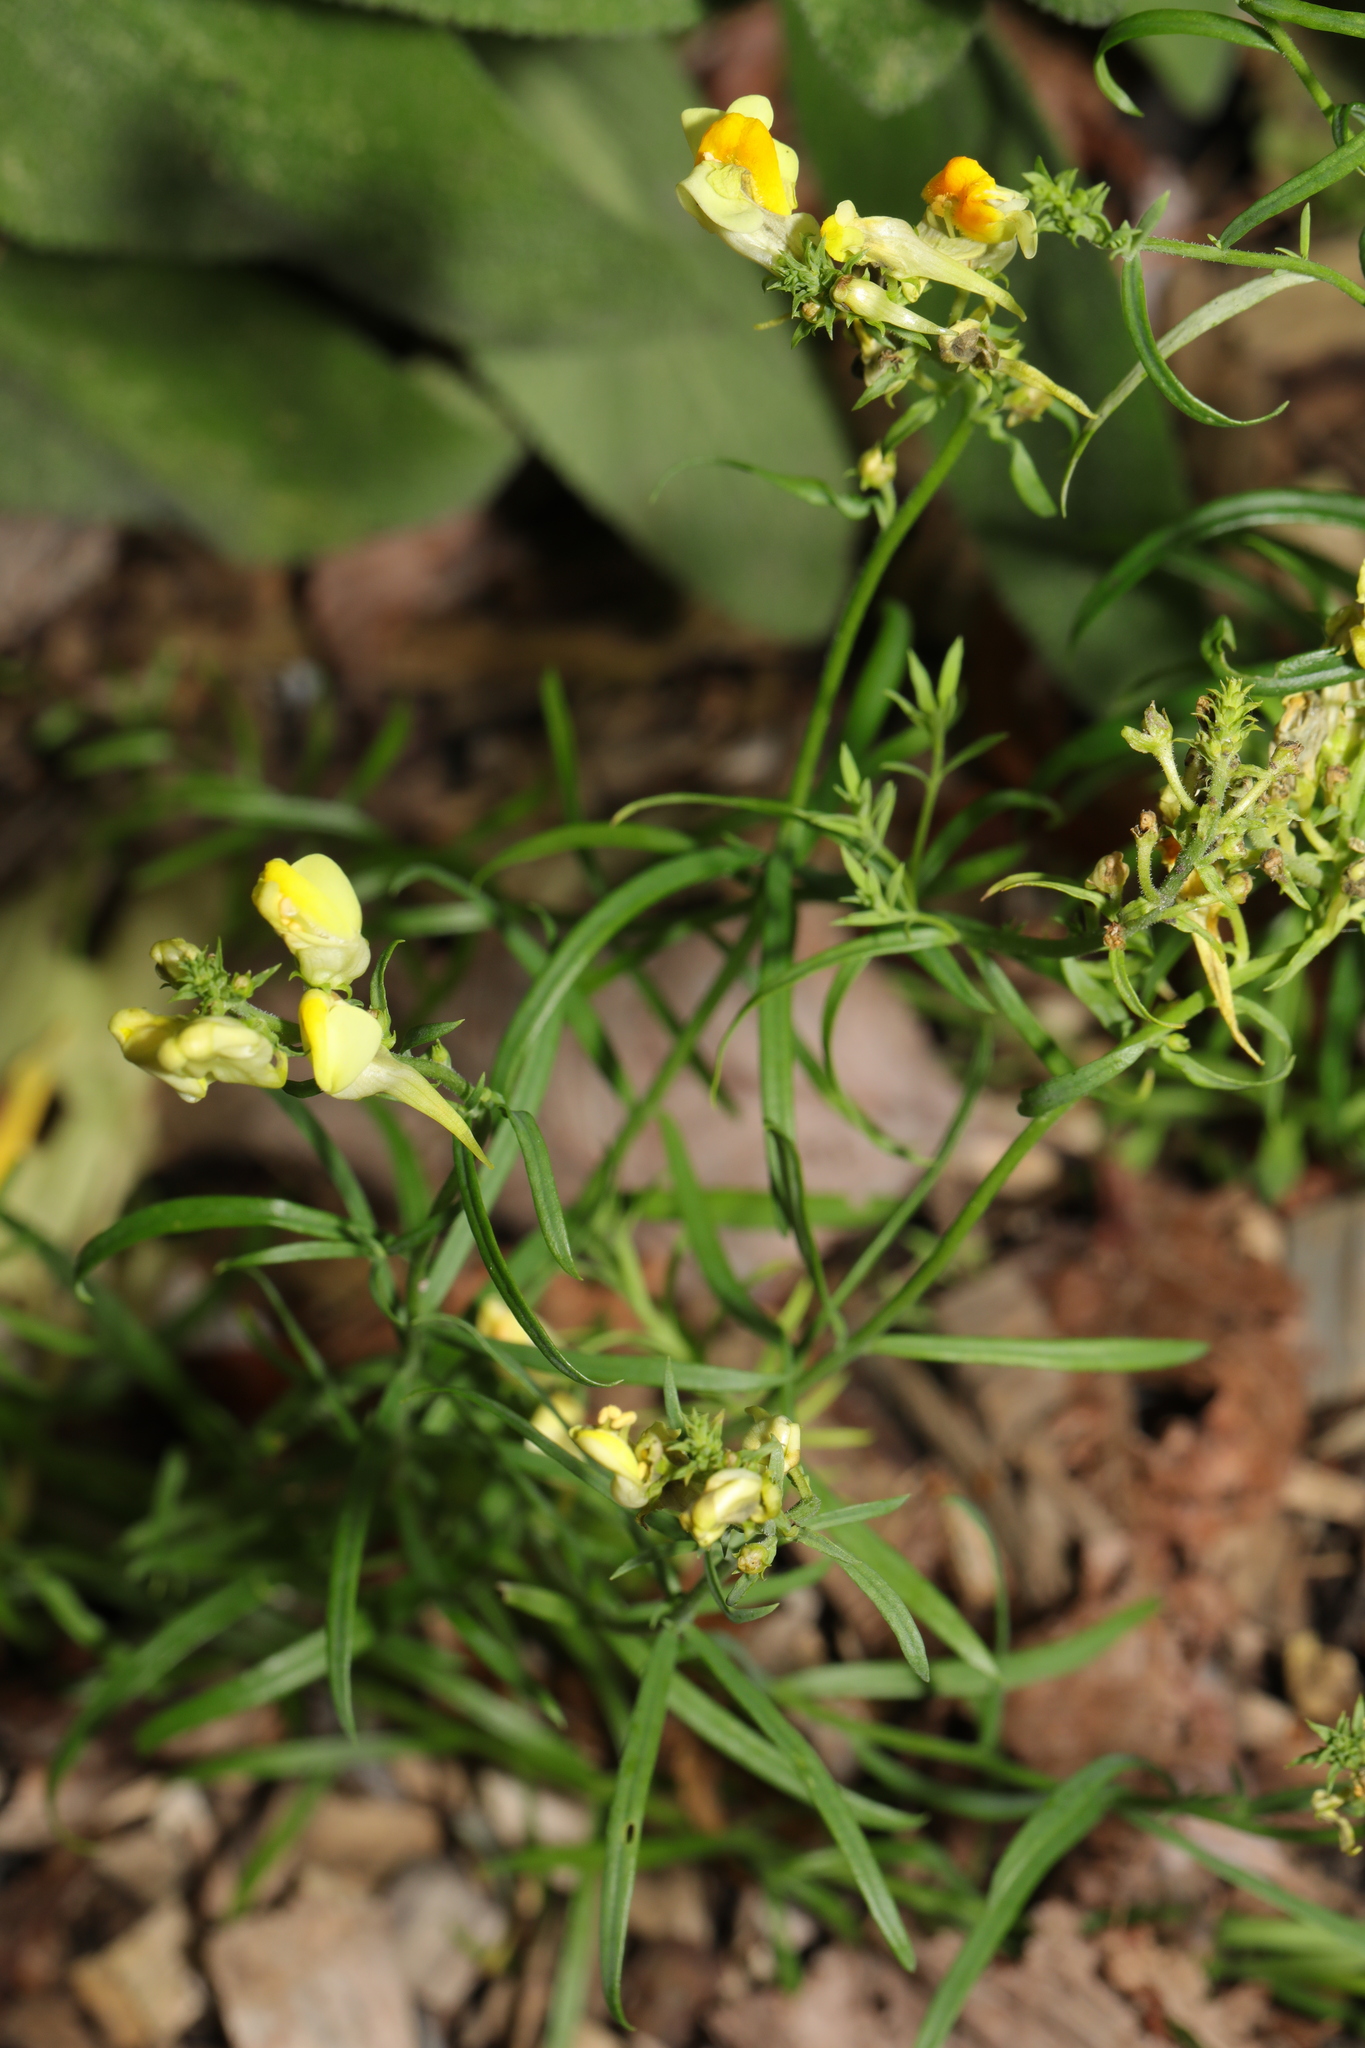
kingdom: Plantae
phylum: Tracheophyta
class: Magnoliopsida
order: Lamiales
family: Plantaginaceae
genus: Linaria
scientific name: Linaria vulgaris
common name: Butter and eggs
